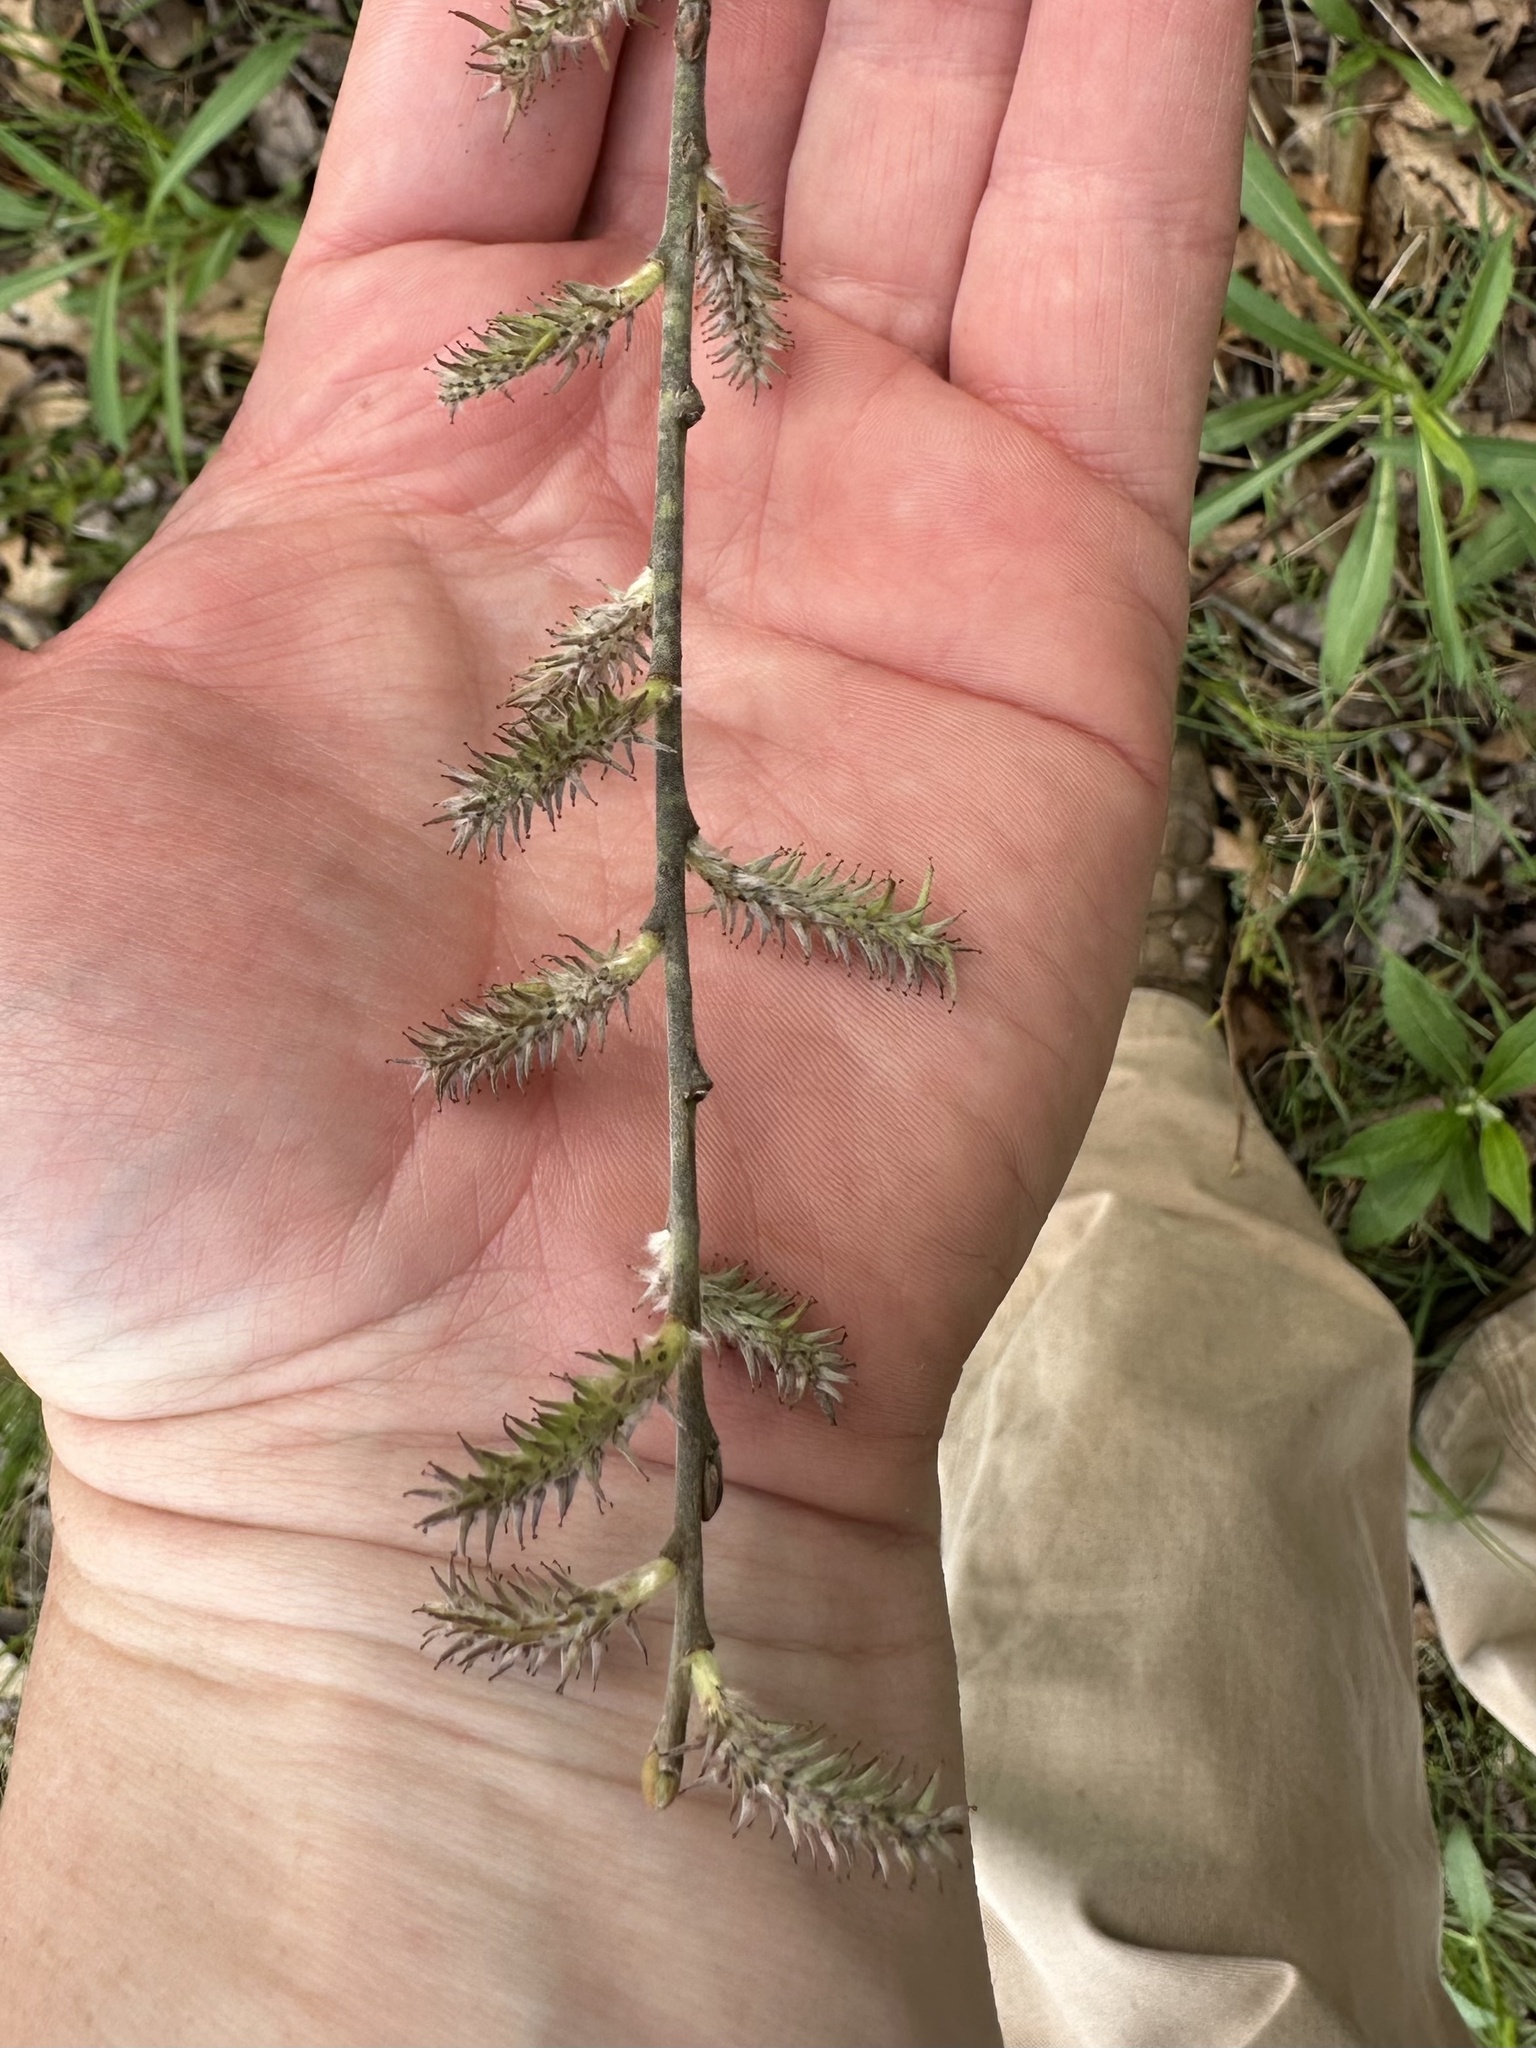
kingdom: Plantae
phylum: Tracheophyta
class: Magnoliopsida
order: Malpighiales
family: Salicaceae
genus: Salix
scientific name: Salix humilis
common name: Prairie willow
